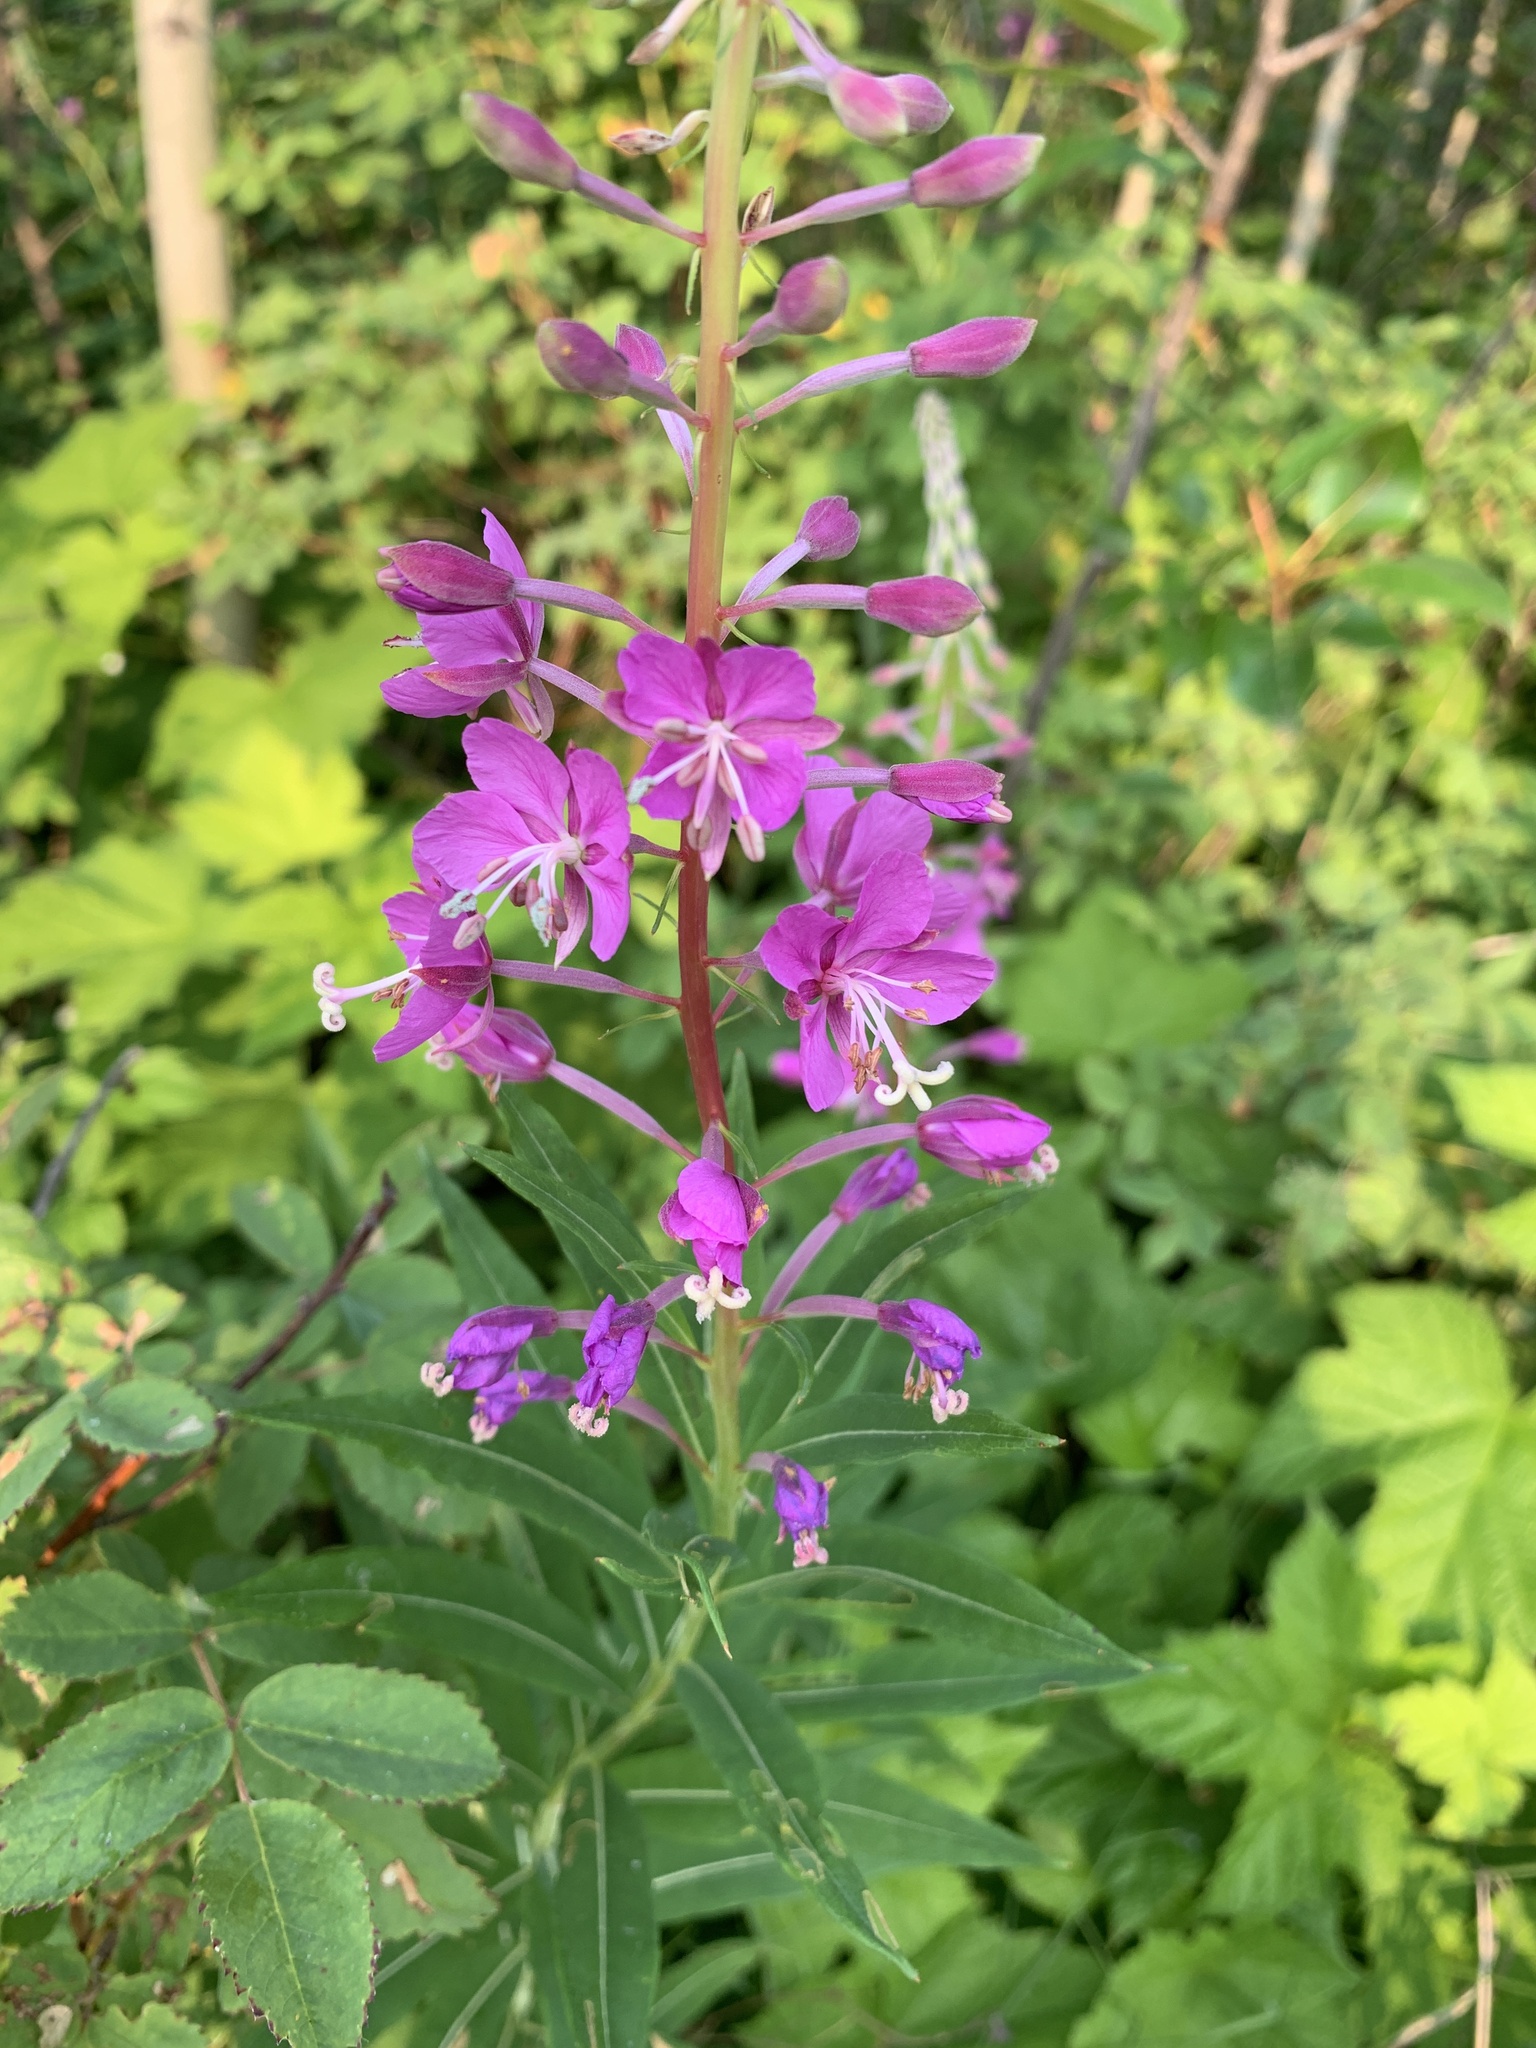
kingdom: Plantae
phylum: Tracheophyta
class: Magnoliopsida
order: Myrtales
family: Onagraceae
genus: Chamaenerion
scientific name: Chamaenerion angustifolium
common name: Fireweed
